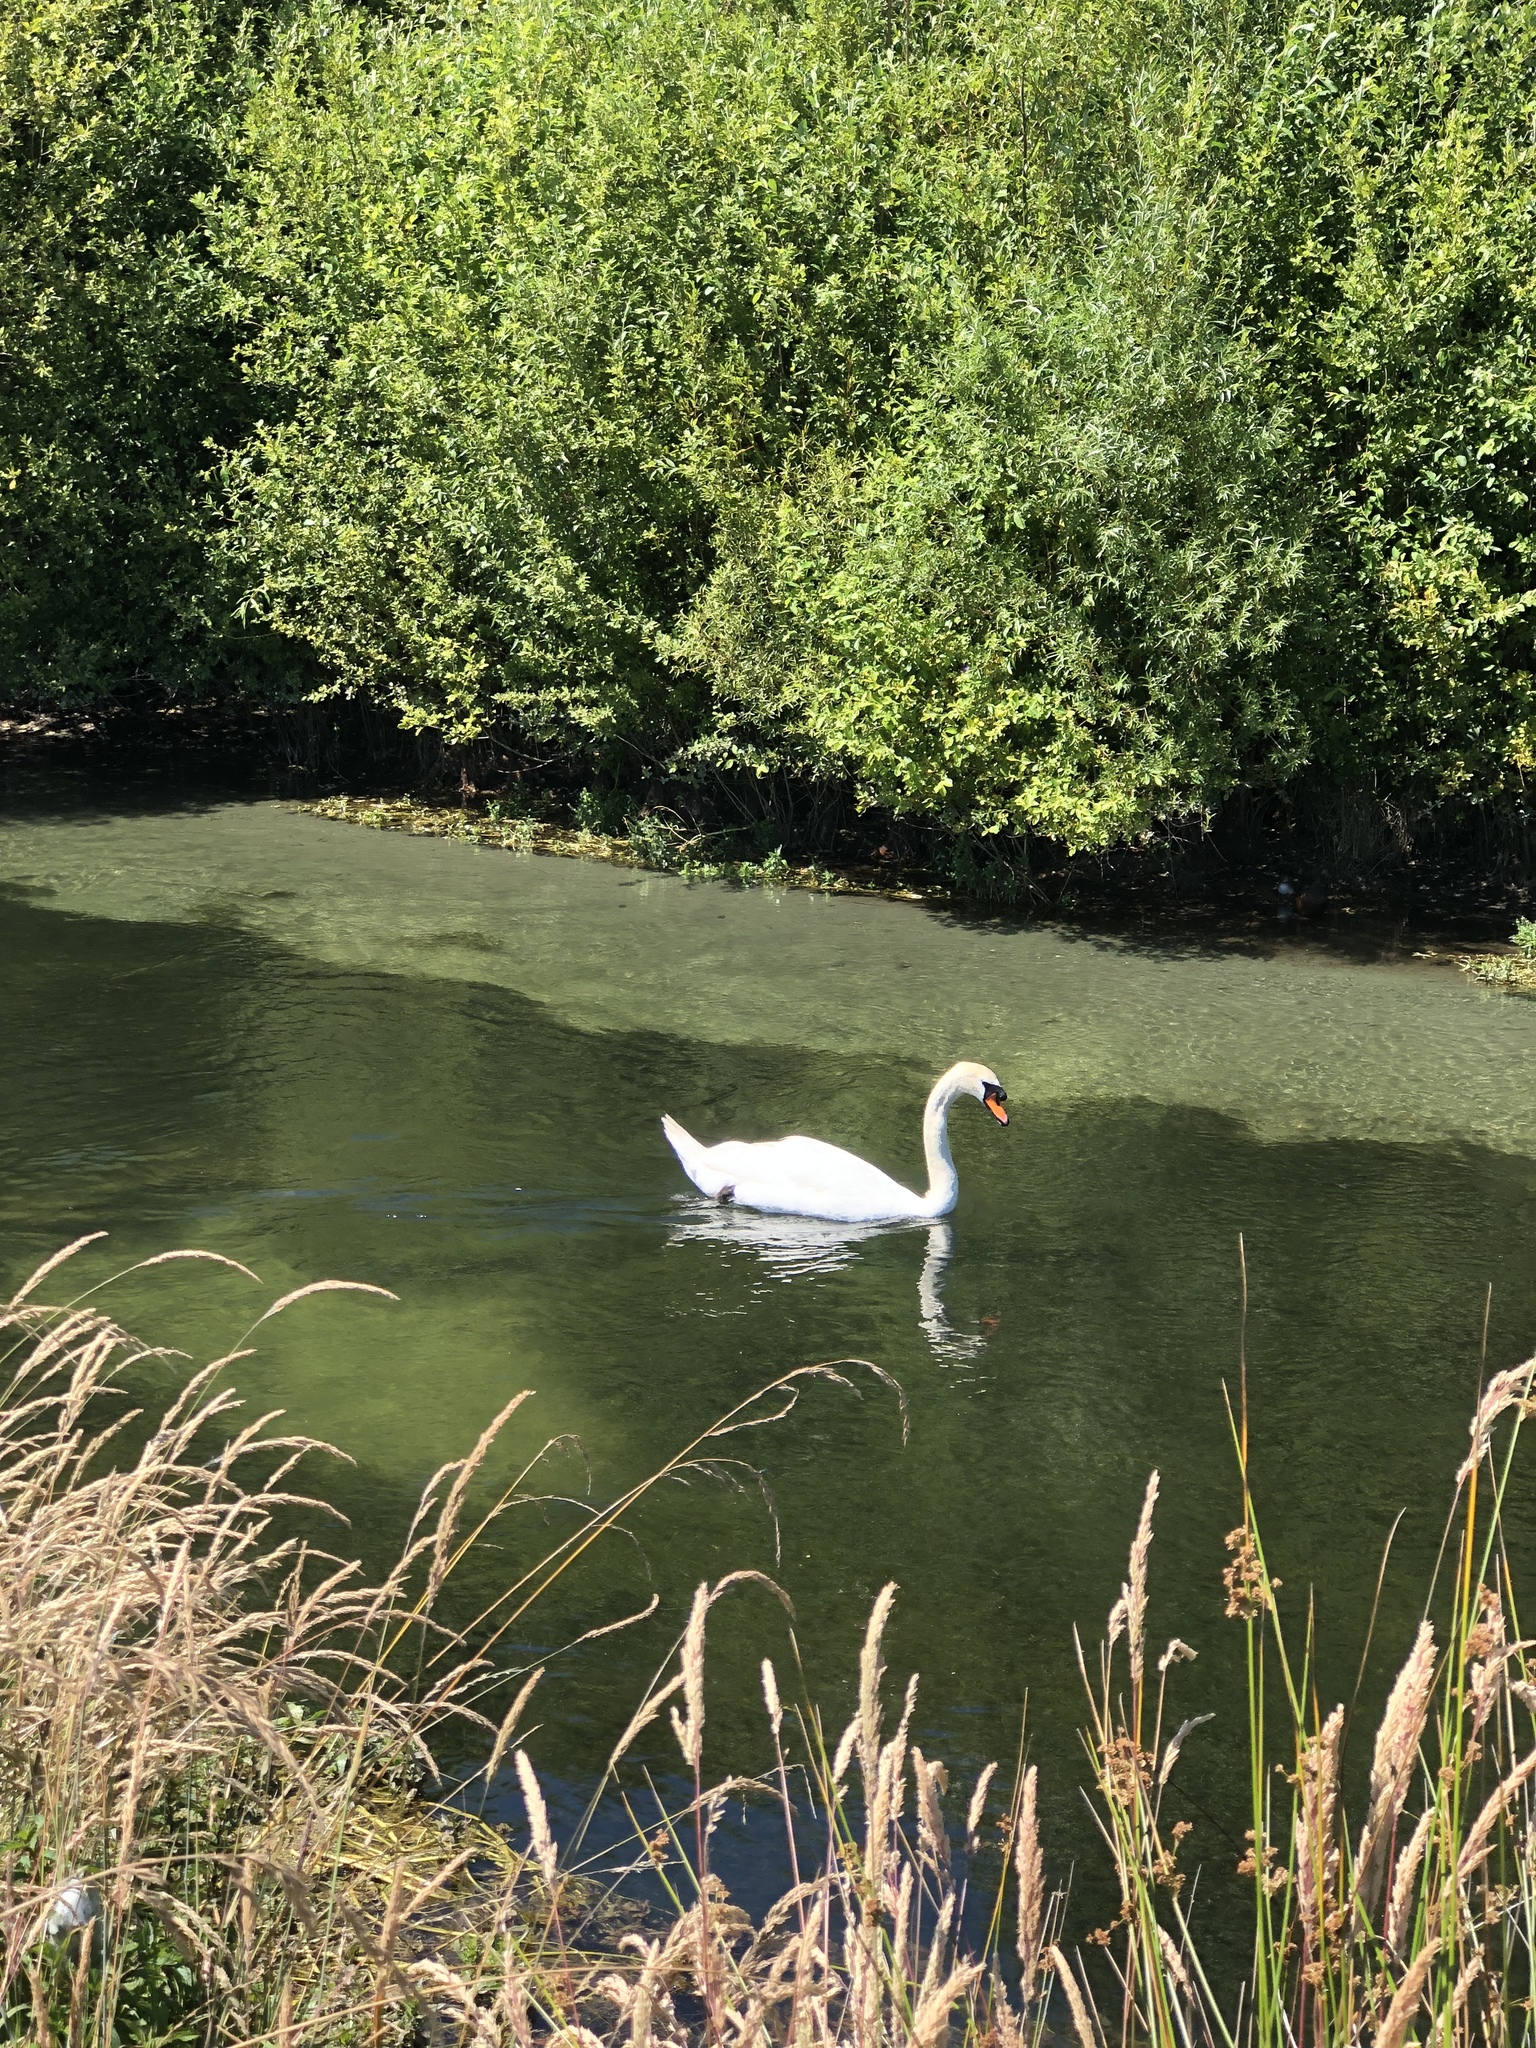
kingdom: Animalia
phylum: Chordata
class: Aves
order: Anseriformes
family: Anatidae
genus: Cygnus
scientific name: Cygnus olor
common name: Mute swan
